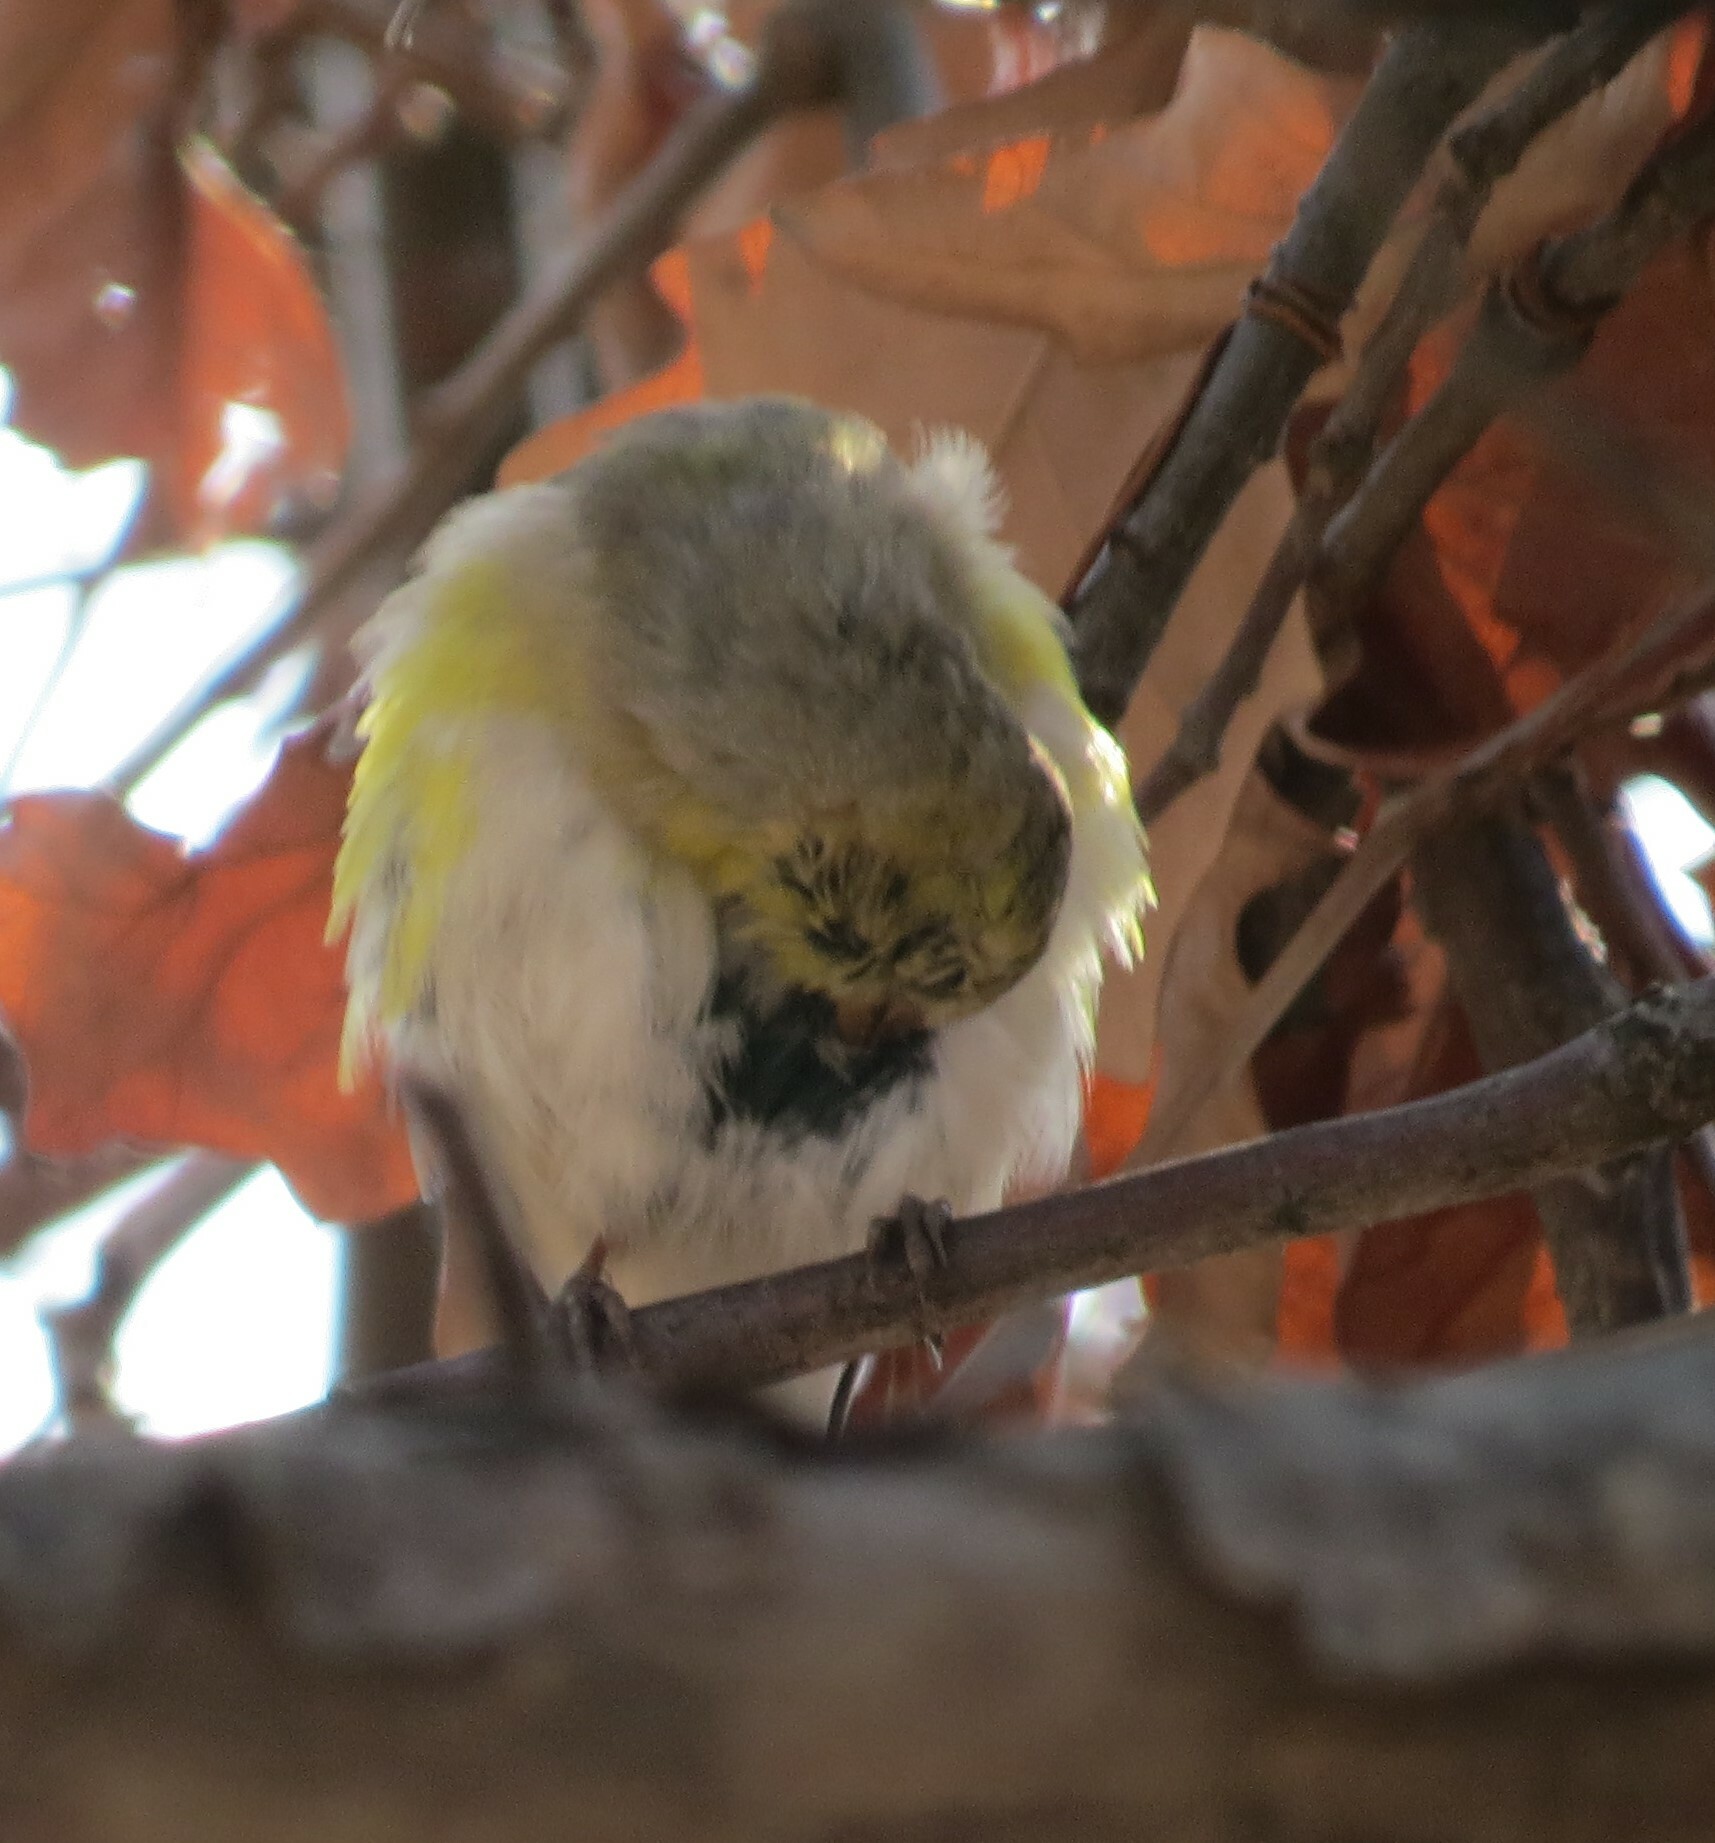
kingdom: Animalia
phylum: Chordata
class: Aves
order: Passeriformes
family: Fringillidae
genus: Spinus
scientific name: Spinus tristis
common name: American goldfinch
